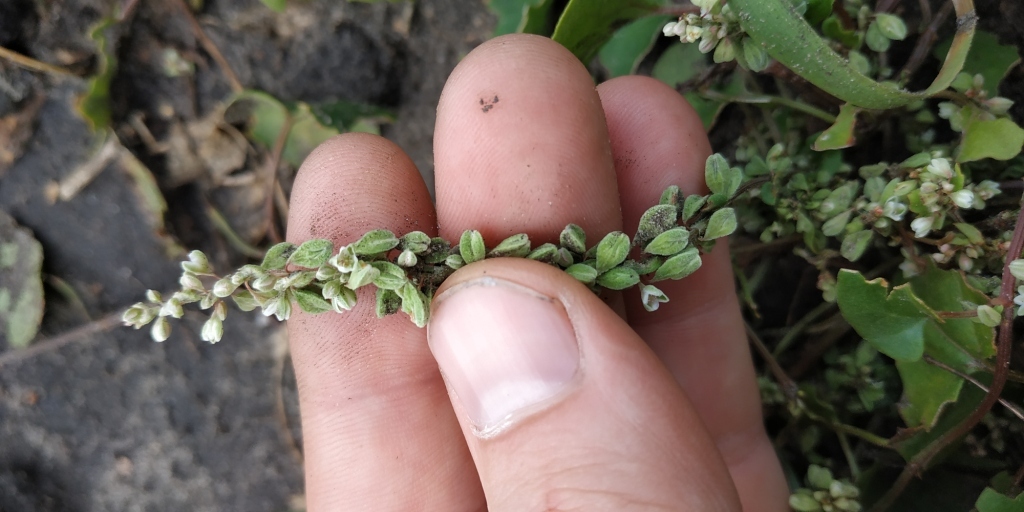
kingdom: Plantae
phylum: Tracheophyta
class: Magnoliopsida
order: Caryophyllales
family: Polygonaceae
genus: Fallopia
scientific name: Fallopia convolvulus
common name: Black bindweed
